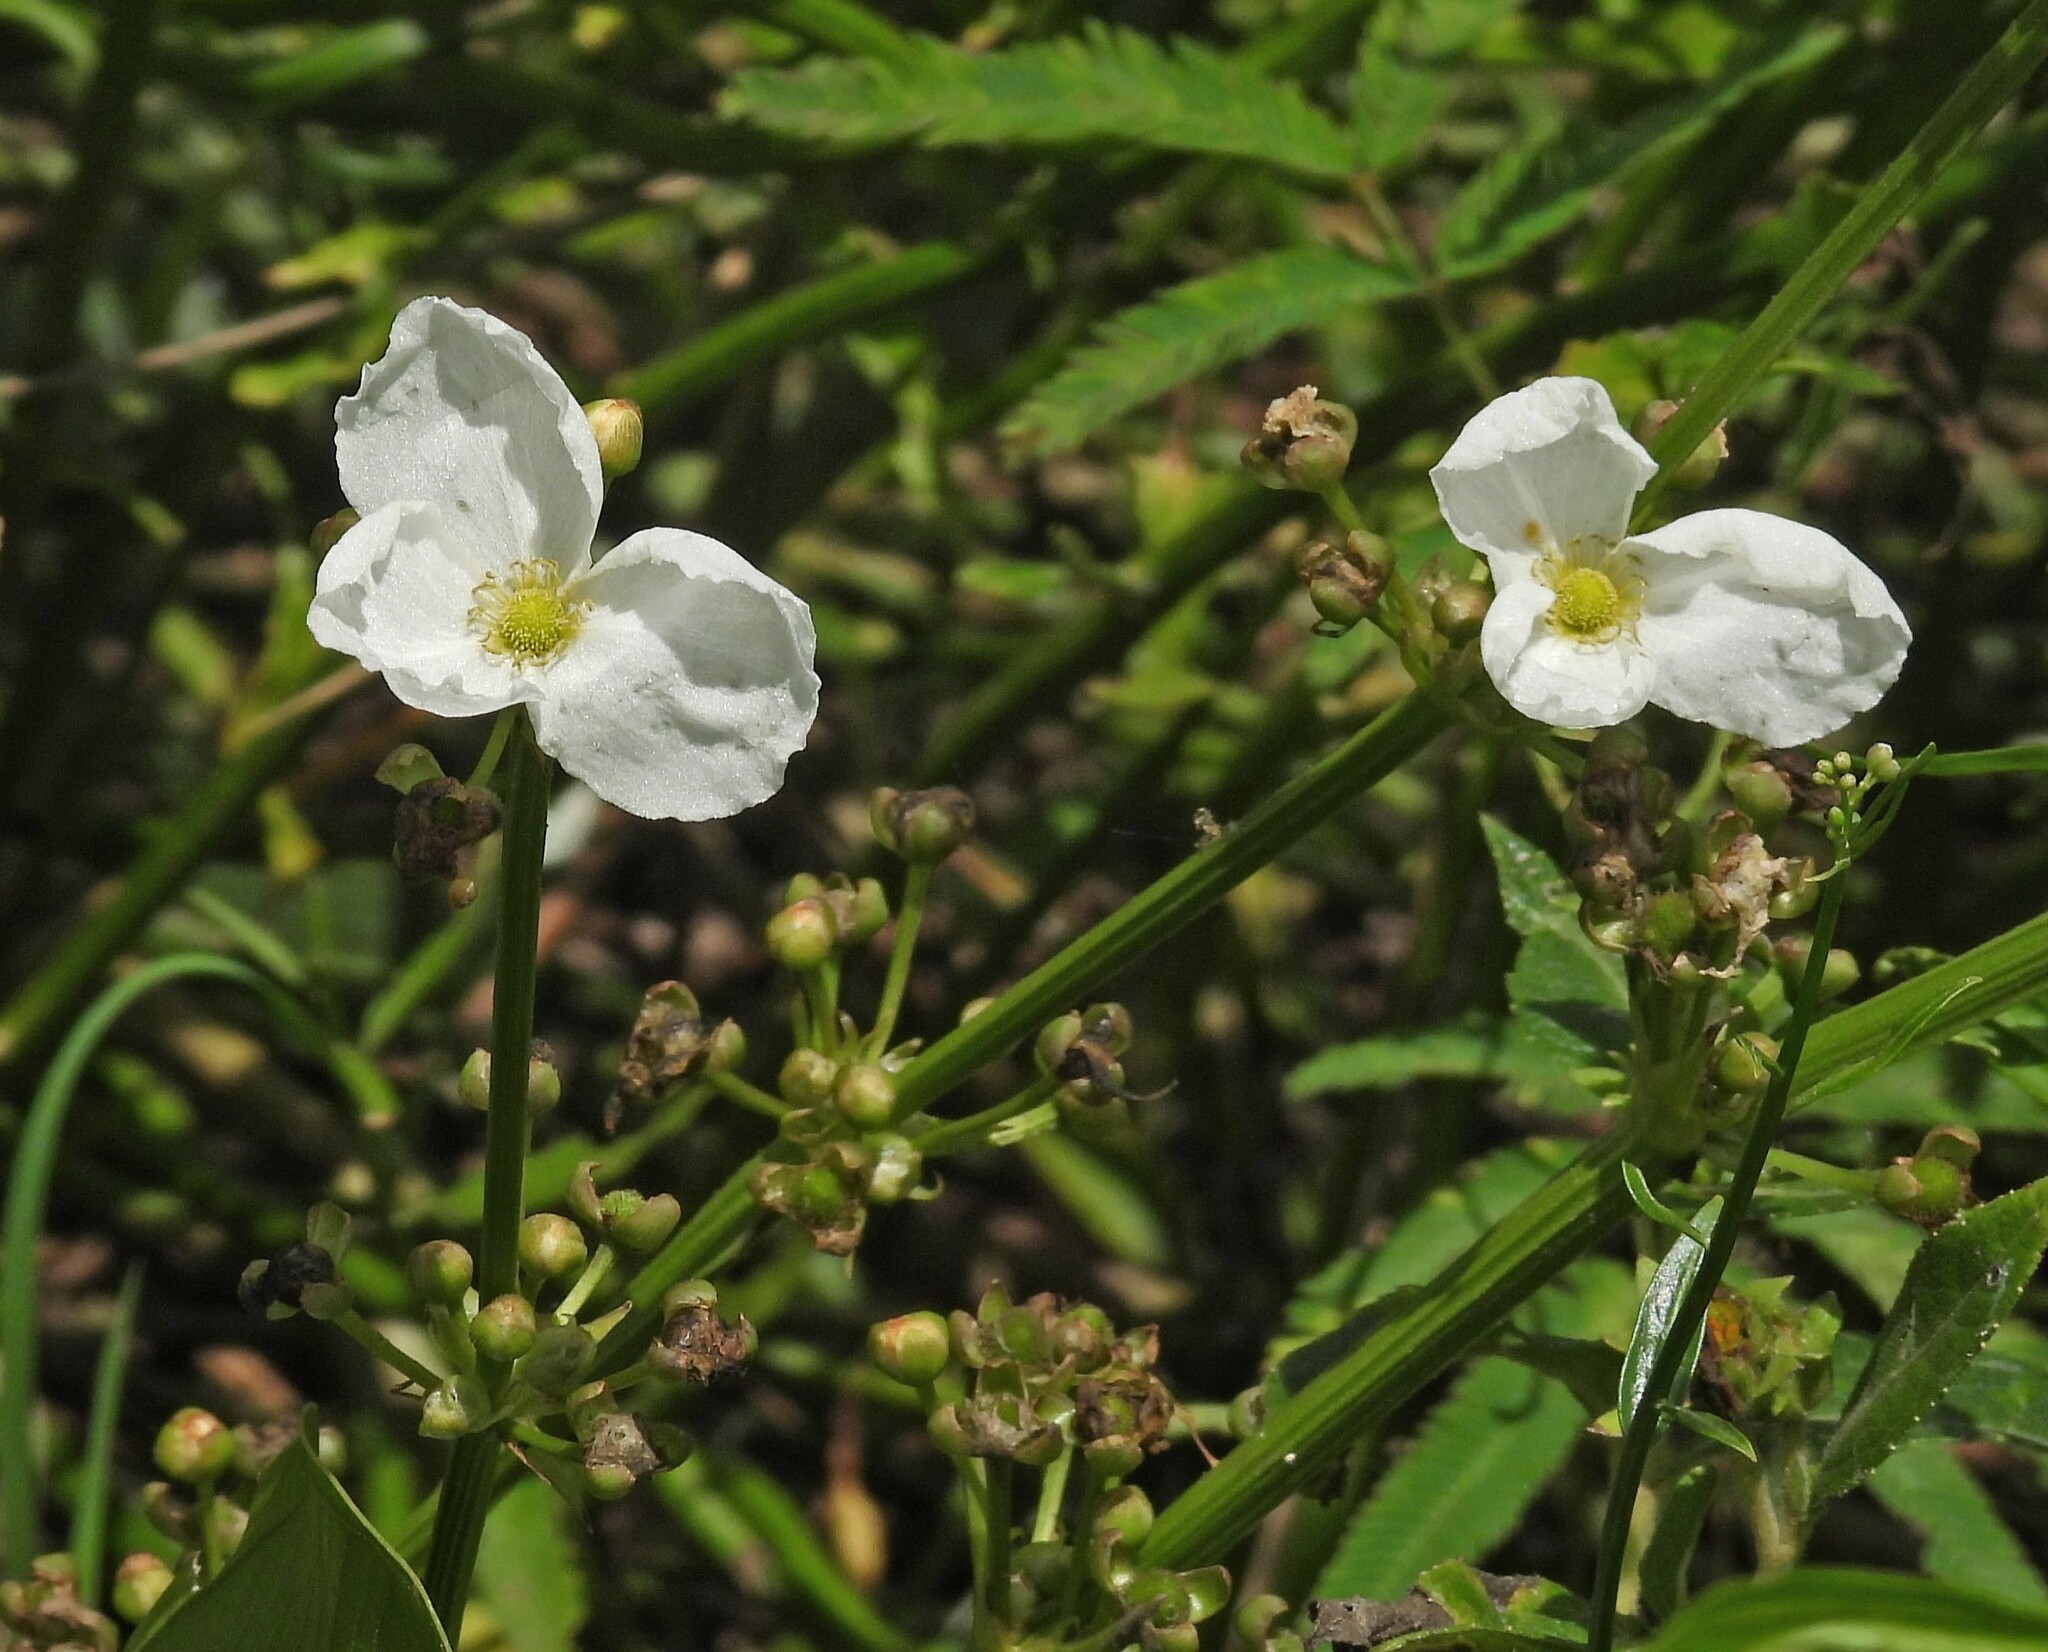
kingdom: Plantae
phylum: Tracheophyta
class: Liliopsida
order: Alismatales
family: Alismataceae
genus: Aquarius
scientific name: Aquarius grandiflorus
